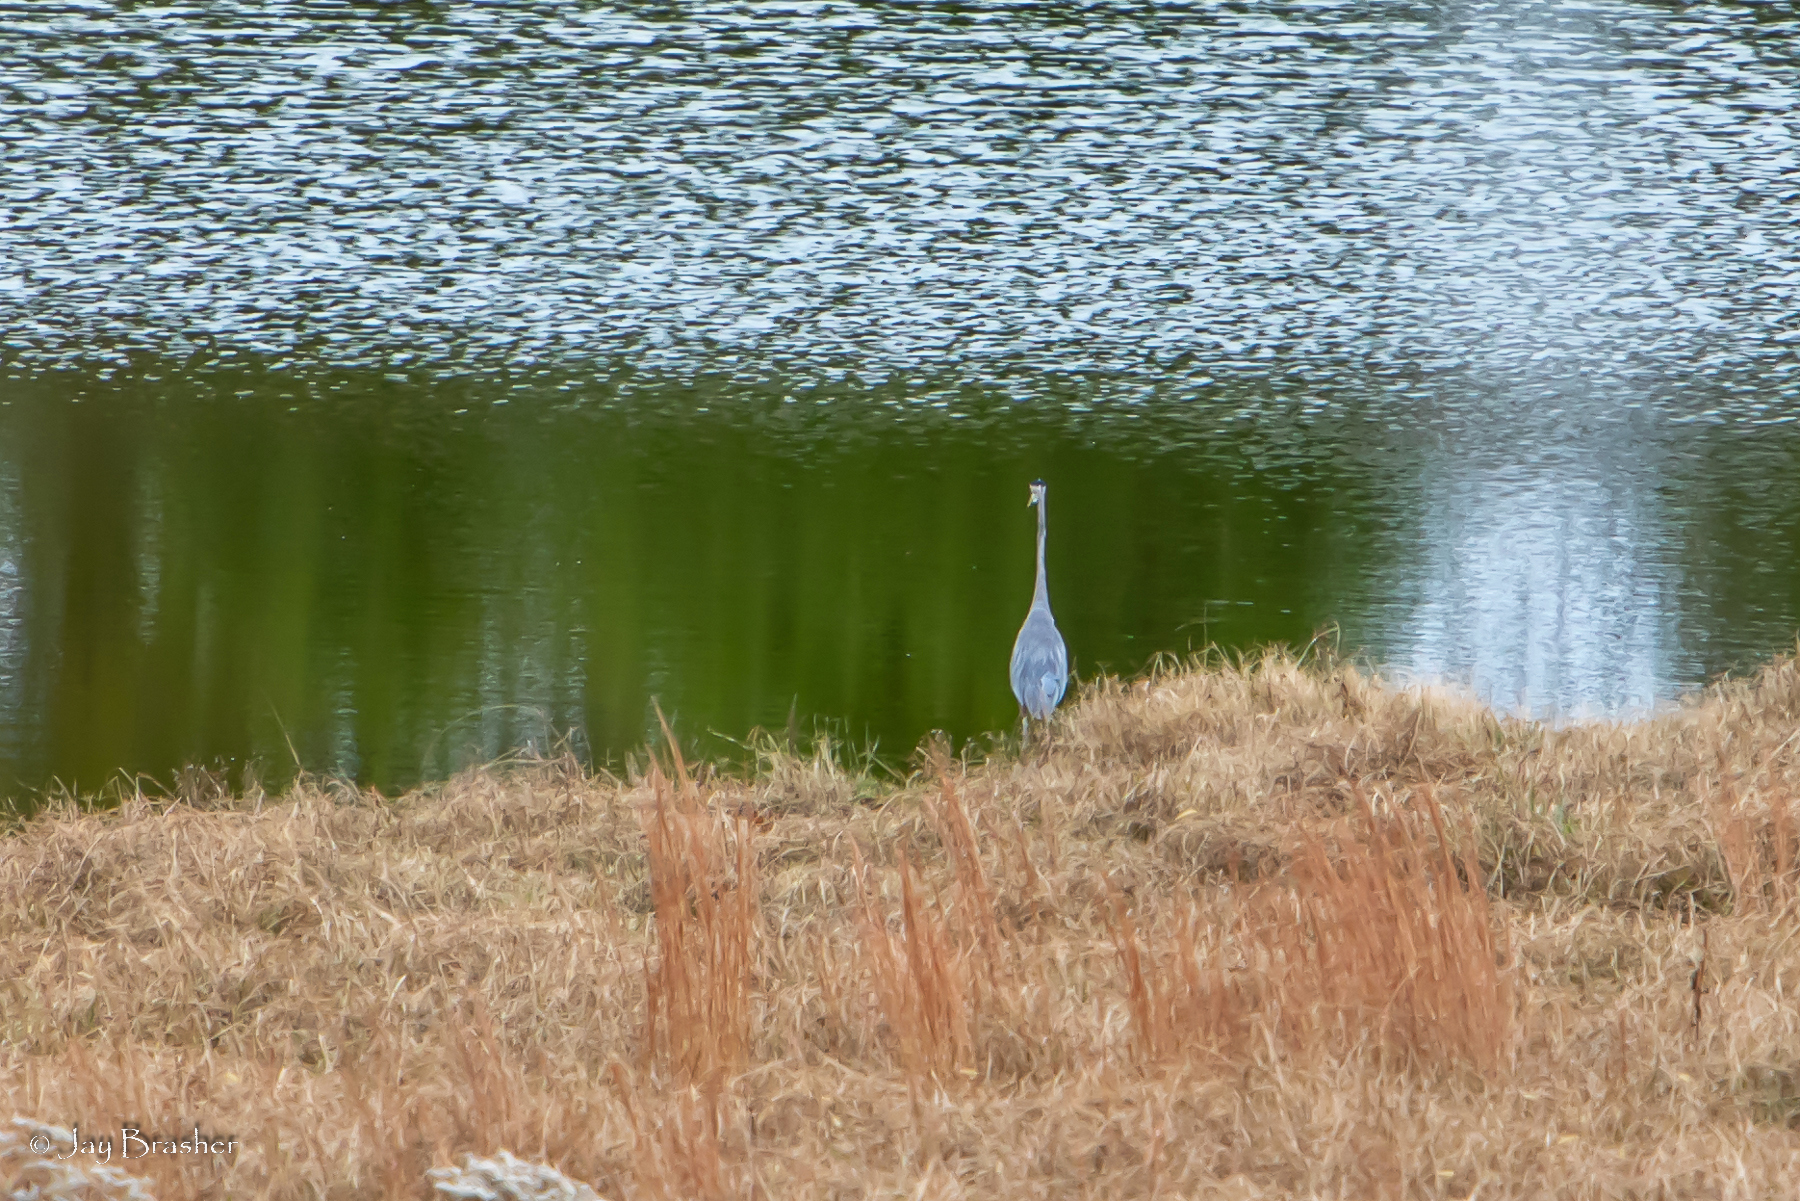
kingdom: Animalia
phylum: Chordata
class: Aves
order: Pelecaniformes
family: Ardeidae
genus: Ardea
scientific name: Ardea herodias
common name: Great blue heron
